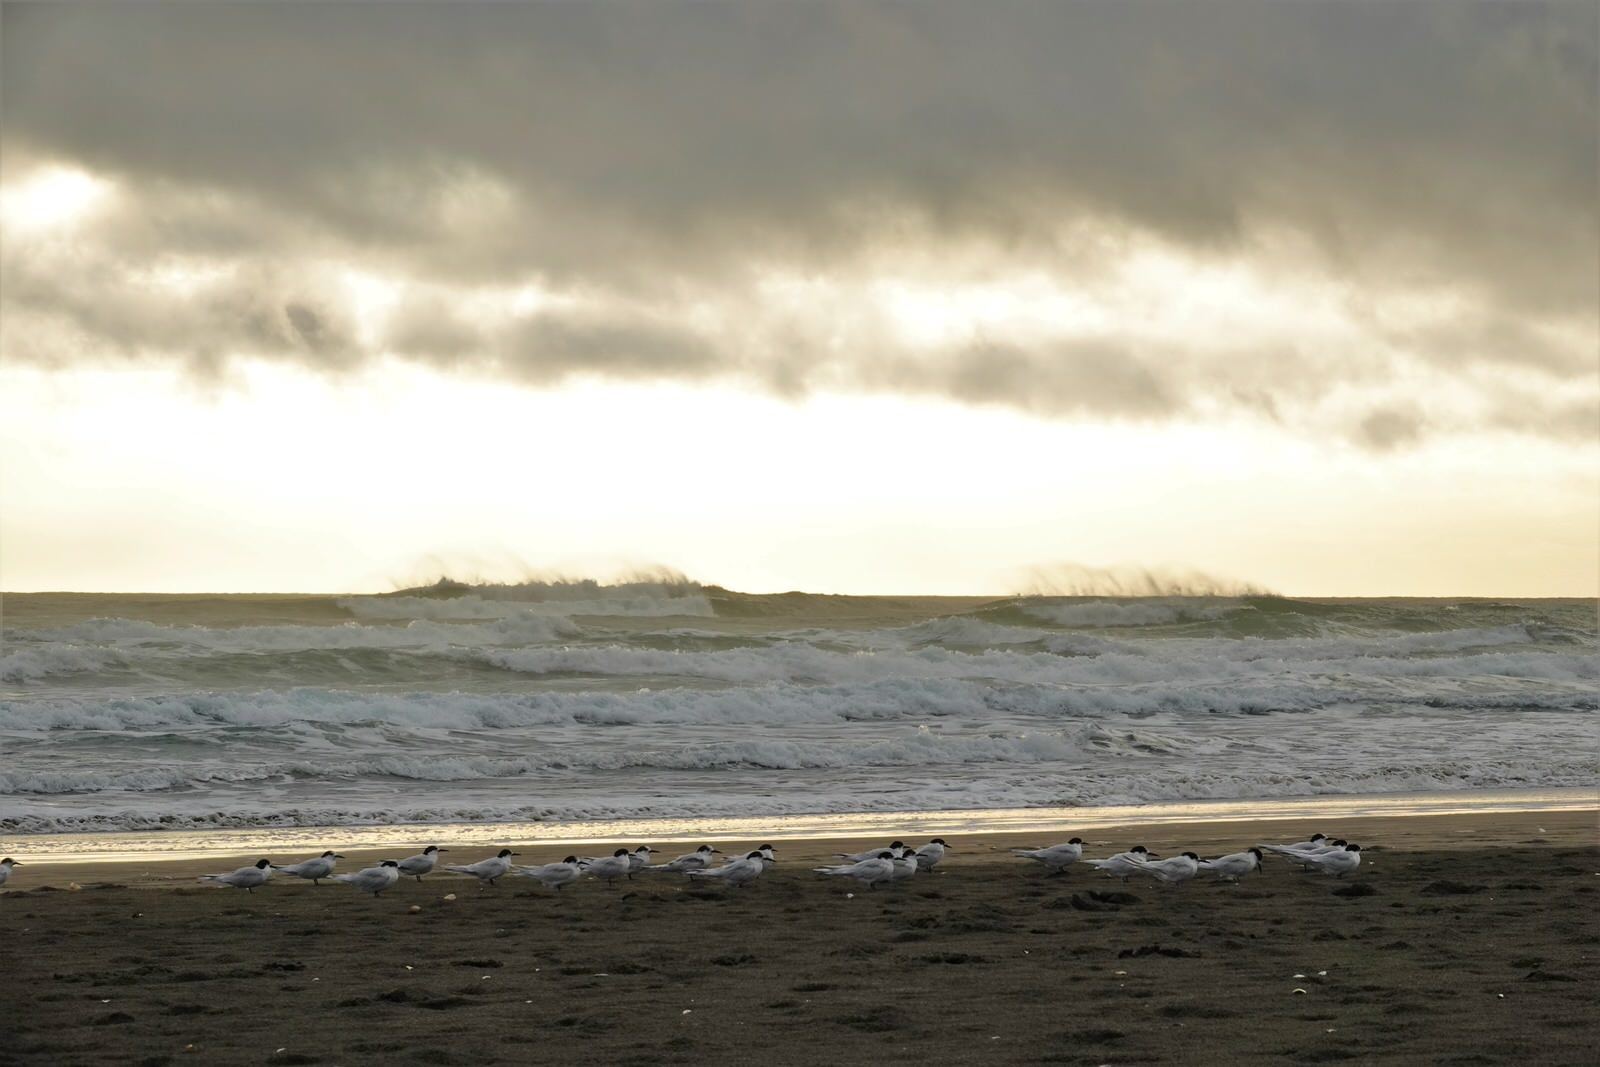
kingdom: Animalia
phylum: Chordata
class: Aves
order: Charadriiformes
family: Laridae
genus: Sterna
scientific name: Sterna striata
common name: White-fronted tern
